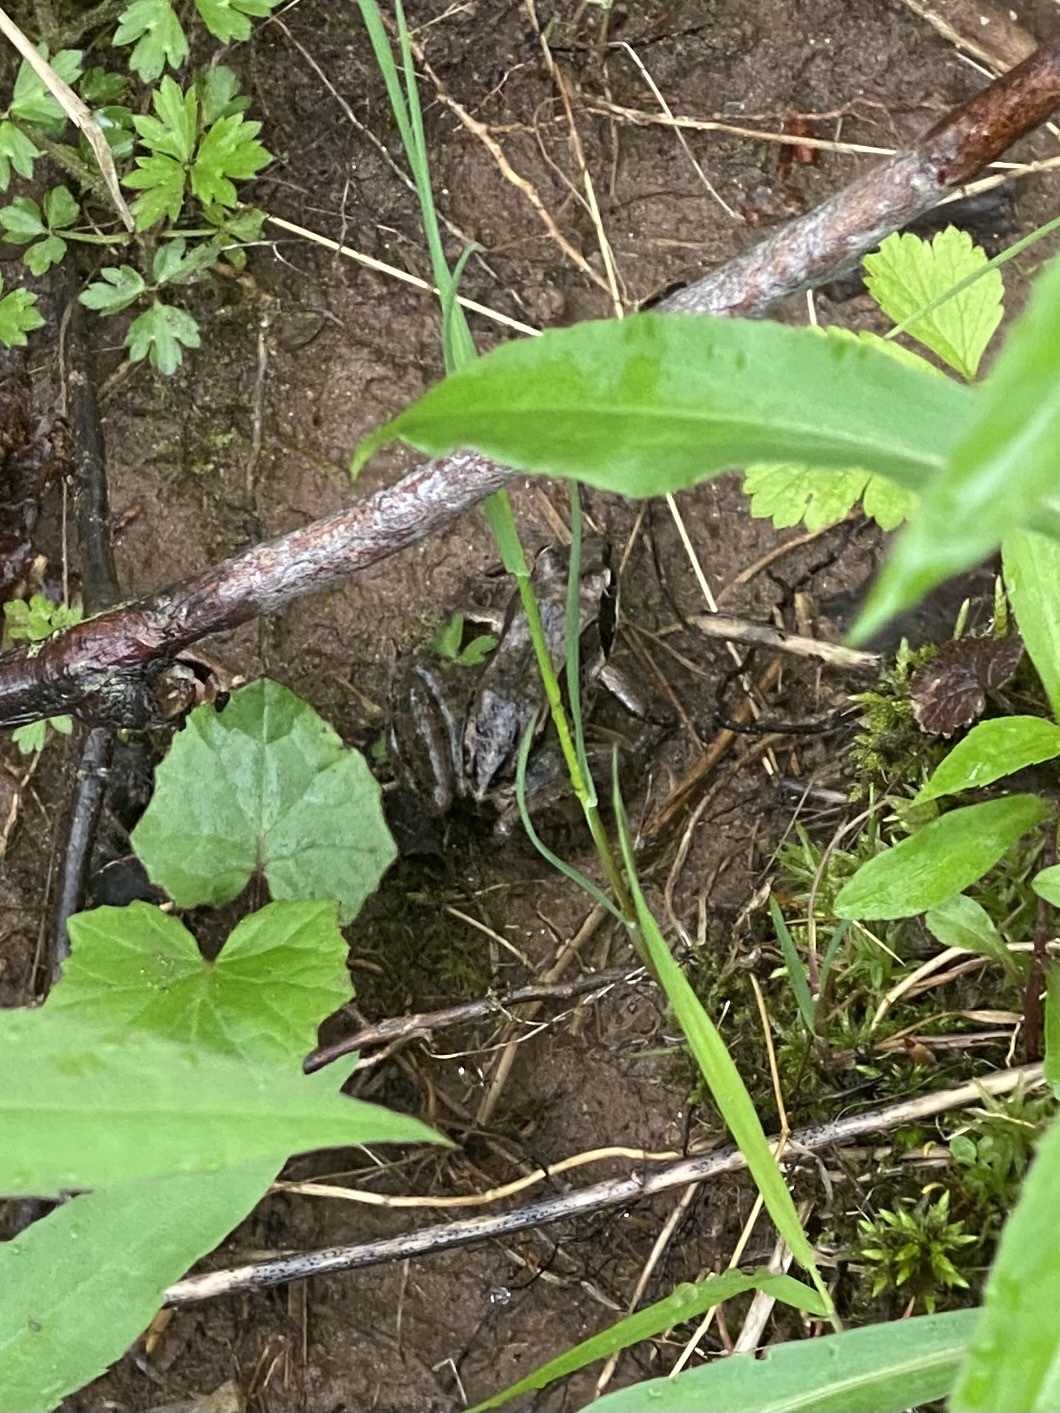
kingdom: Animalia
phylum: Chordata
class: Amphibia
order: Anura
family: Ranidae
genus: Lithobates
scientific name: Lithobates sylvaticus
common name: Wood frog
